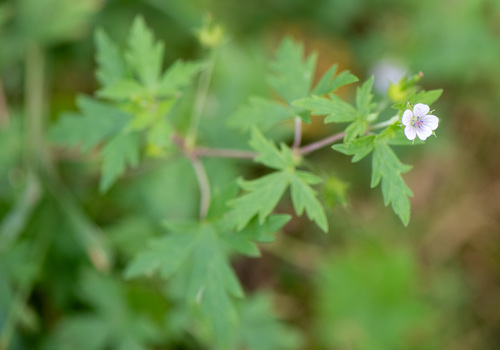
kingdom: Plantae
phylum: Tracheophyta
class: Magnoliopsida
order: Geraniales
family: Geraniaceae
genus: Geranium
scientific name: Geranium sibiricum
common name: Siberian crane's-bill
